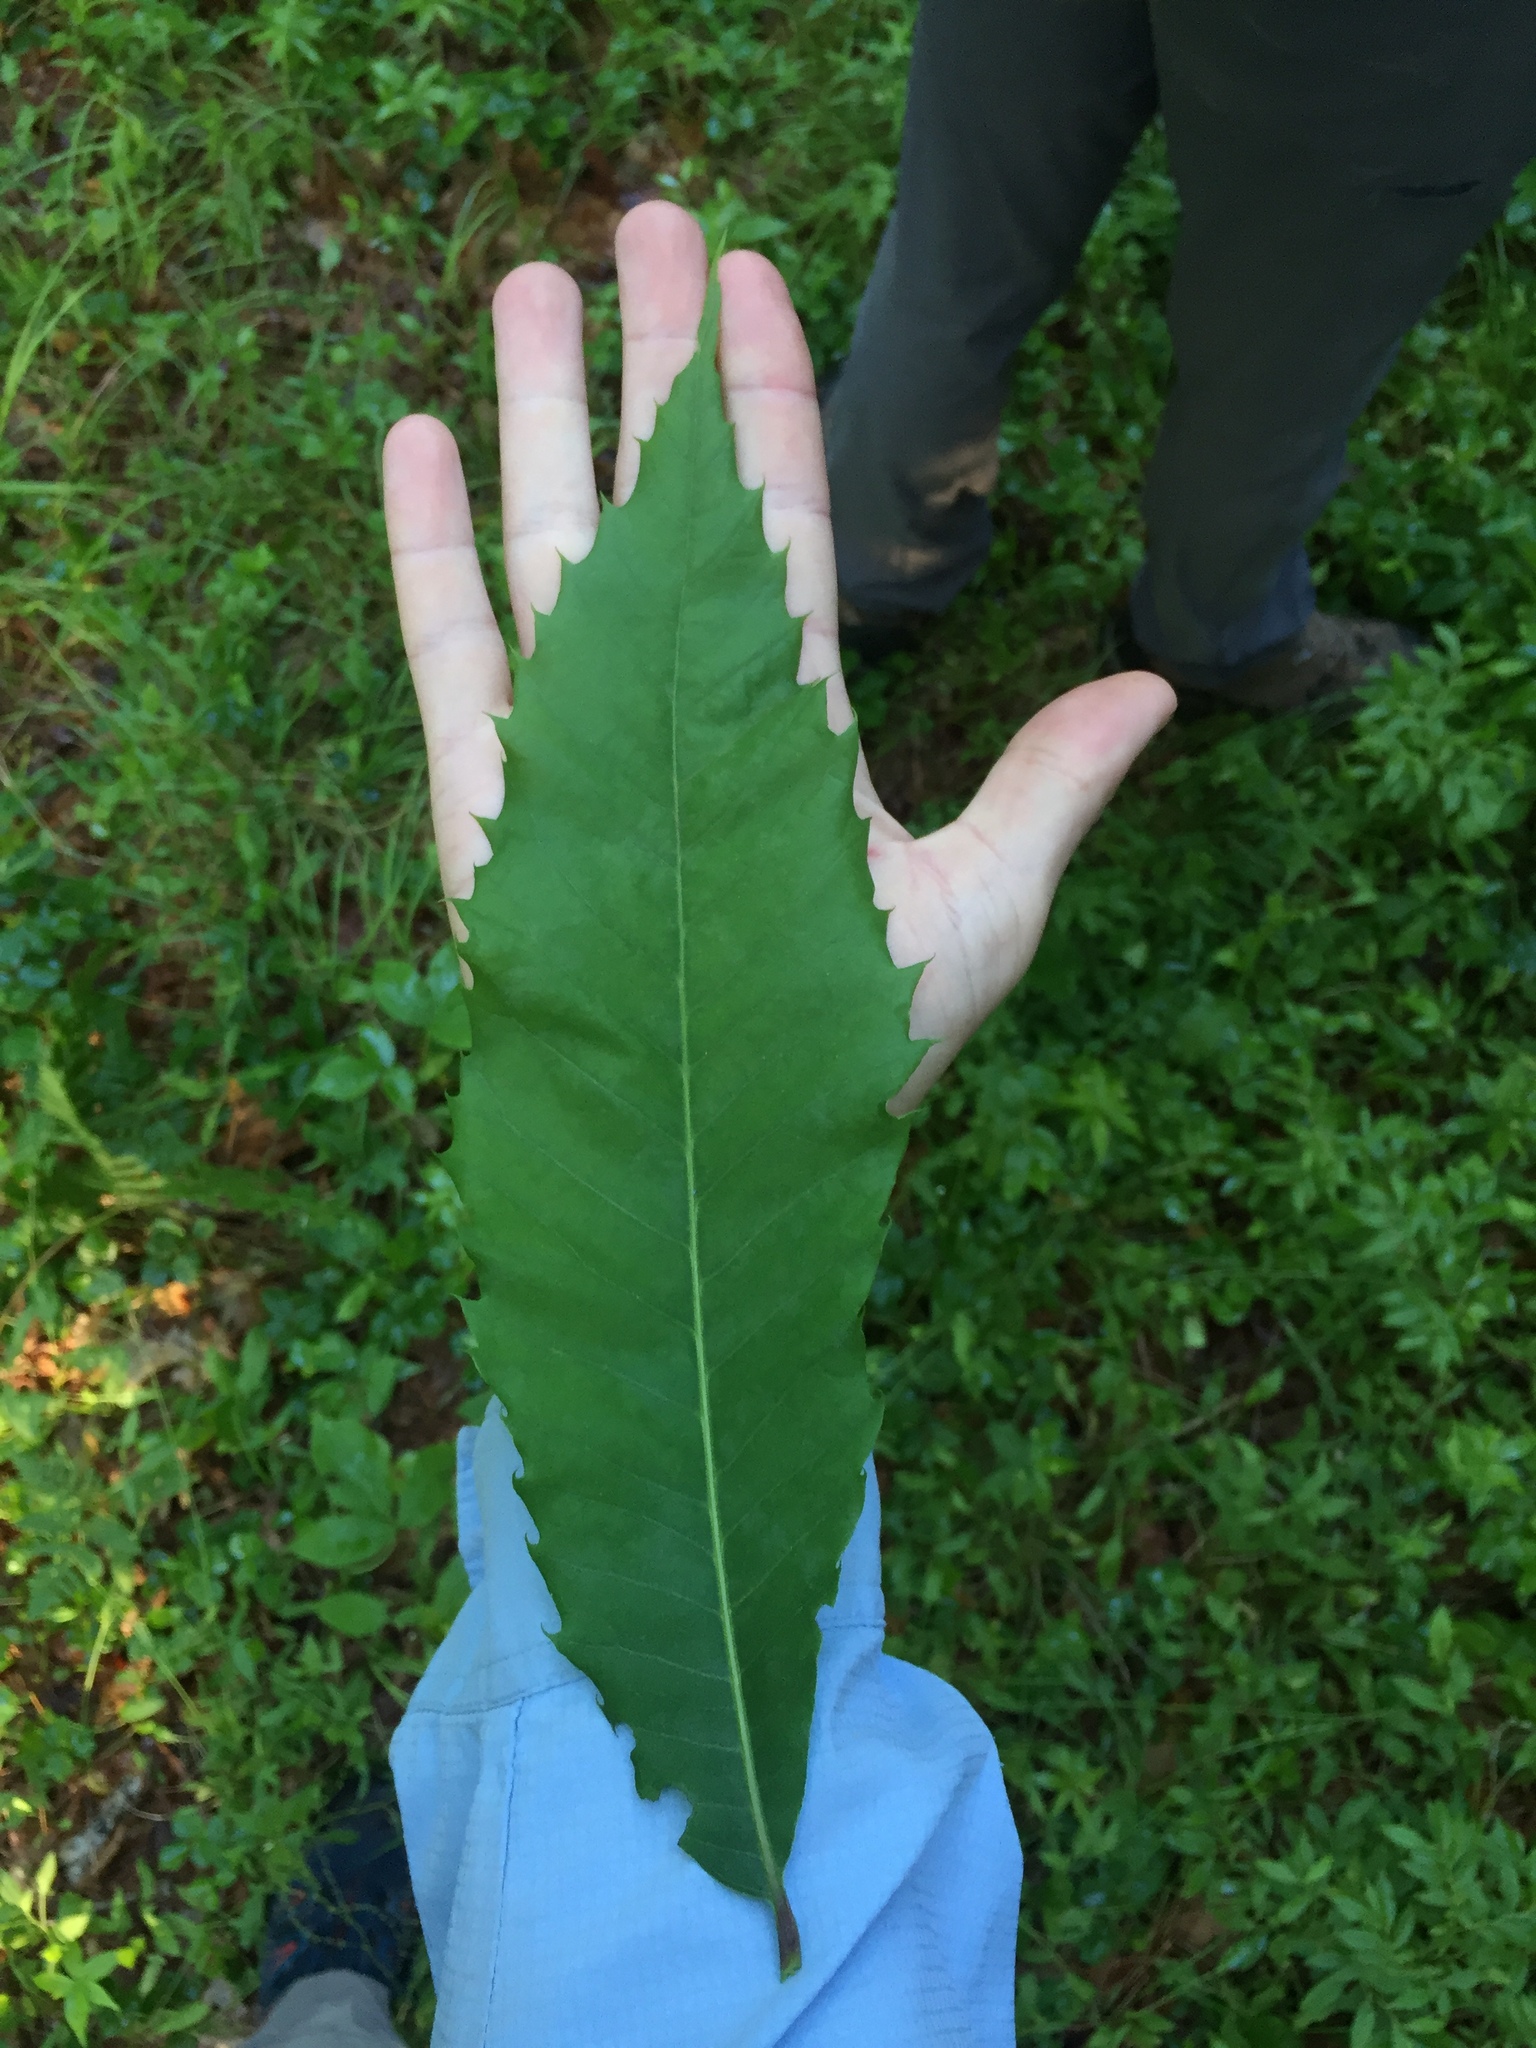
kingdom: Plantae
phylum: Tracheophyta
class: Magnoliopsida
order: Fagales
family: Fagaceae
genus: Castanea
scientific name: Castanea dentata
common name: American chestnut
